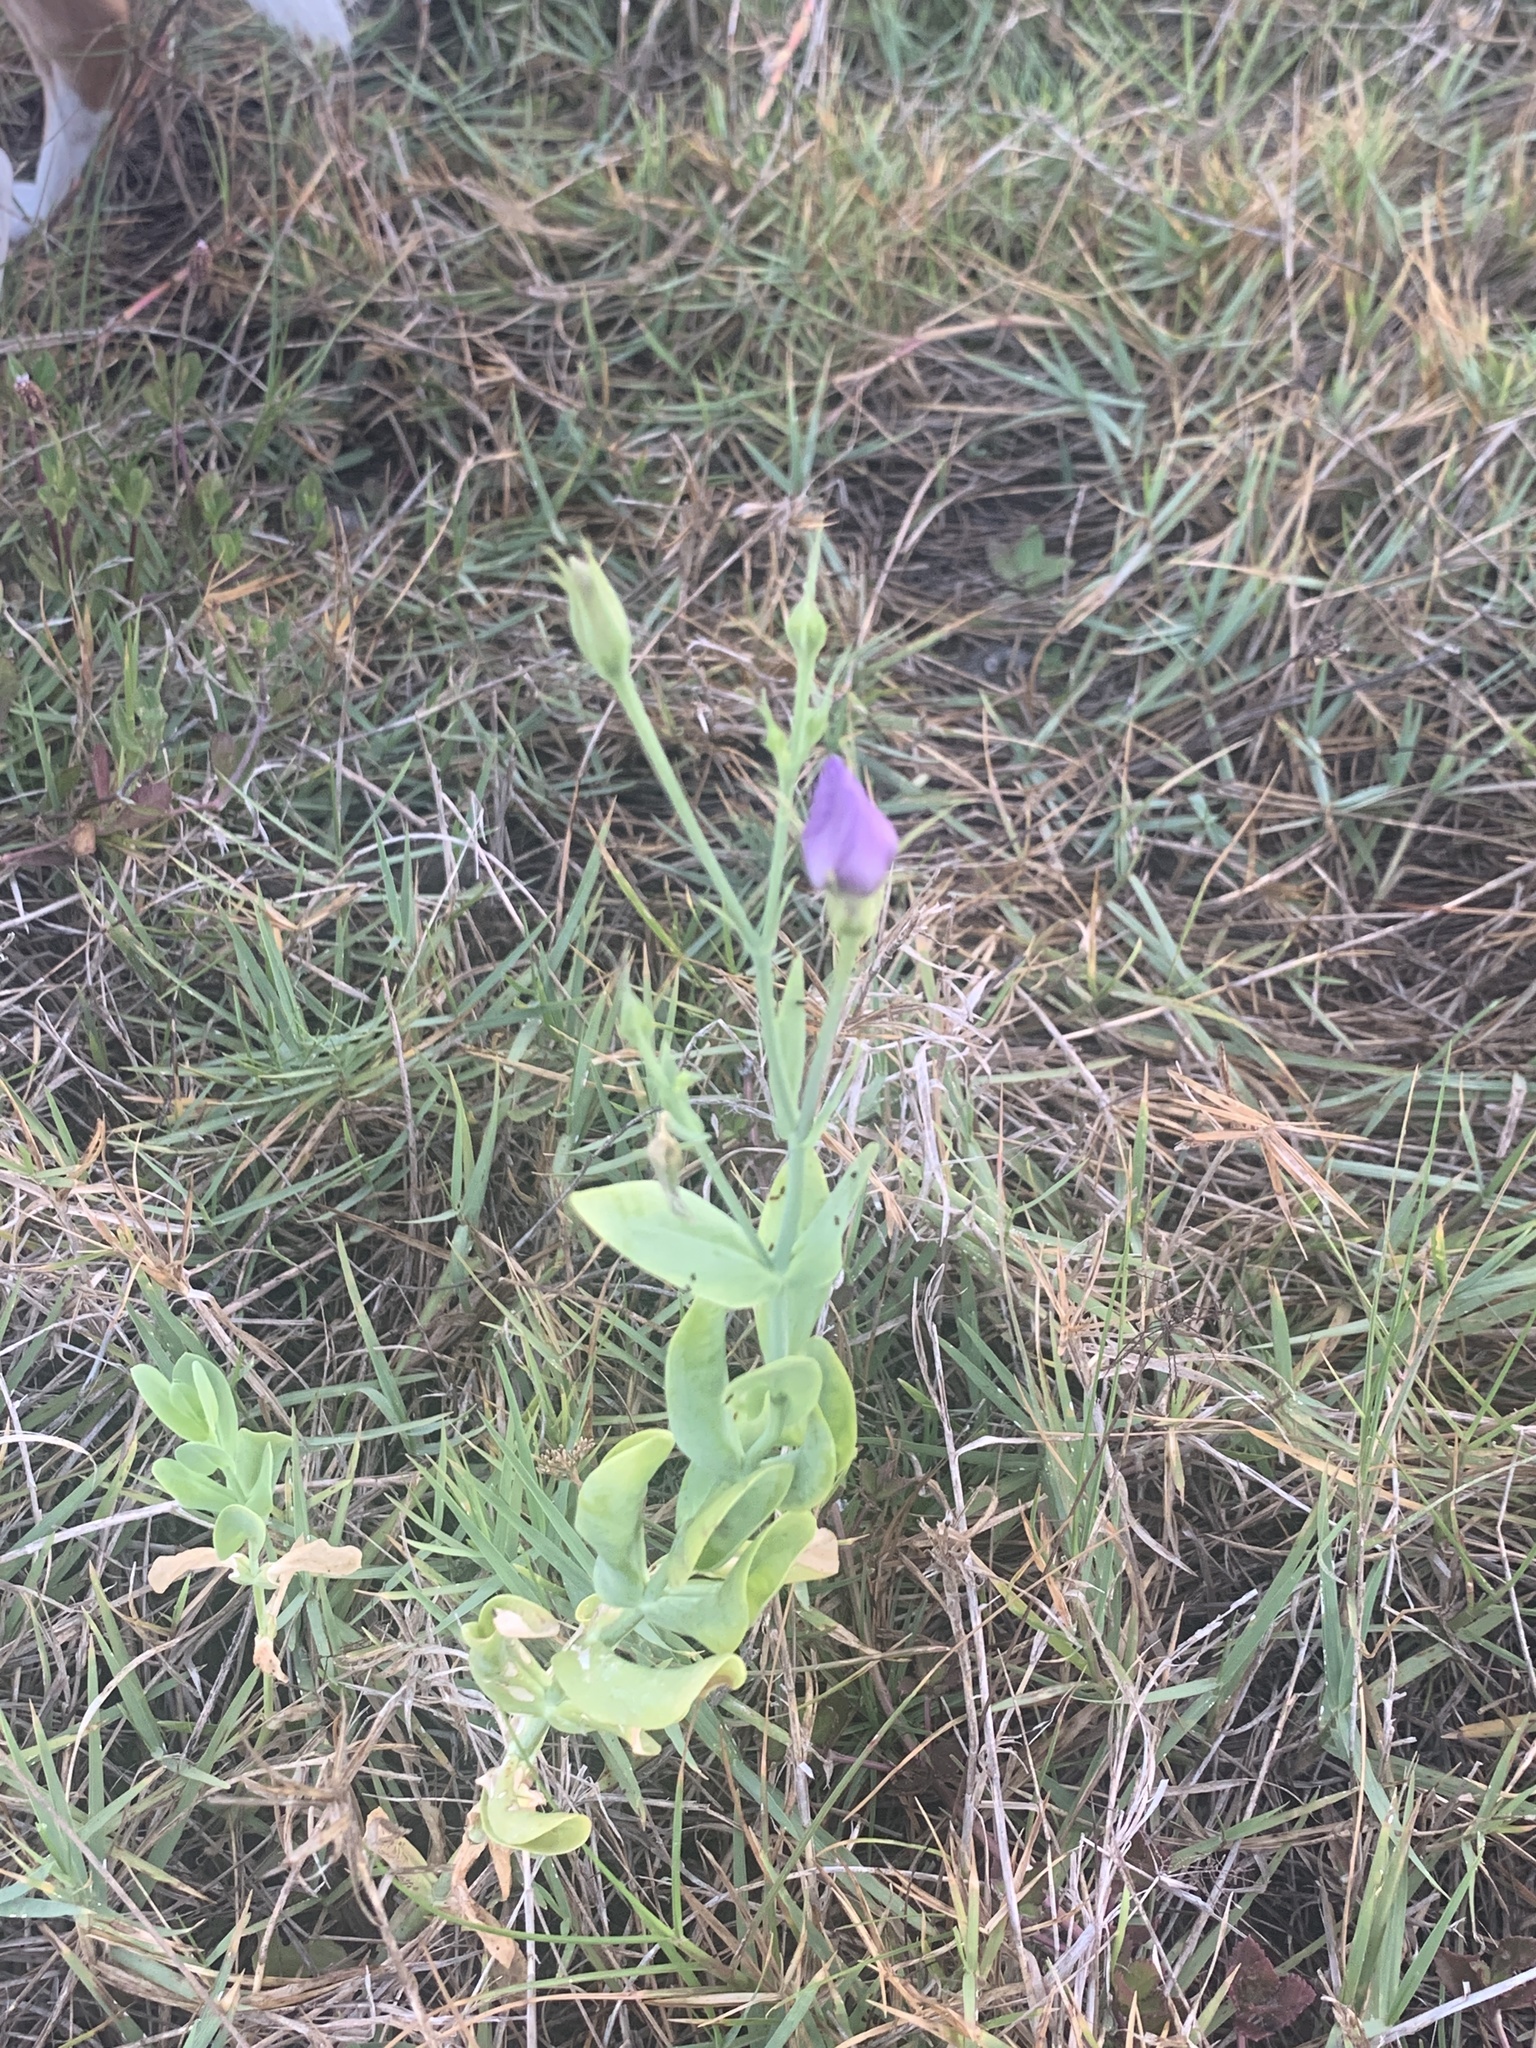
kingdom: Plantae
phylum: Tracheophyta
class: Magnoliopsida
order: Gentianales
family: Gentianaceae
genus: Eustoma
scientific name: Eustoma exaltatum
